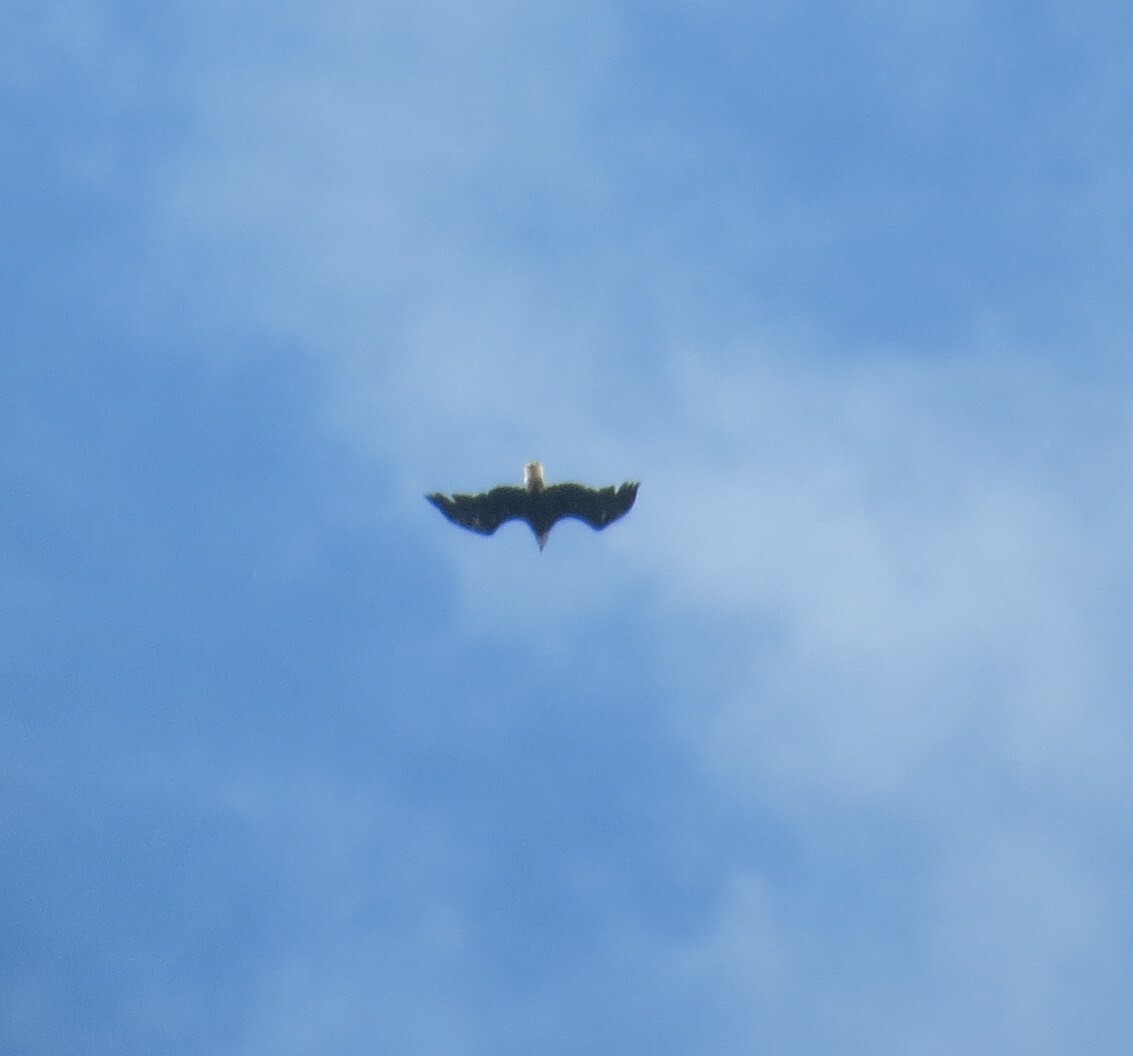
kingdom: Animalia
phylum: Chordata
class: Aves
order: Accipitriformes
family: Accipitridae
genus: Haliaeetus
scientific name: Haliaeetus leucocephalus
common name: Bald eagle
